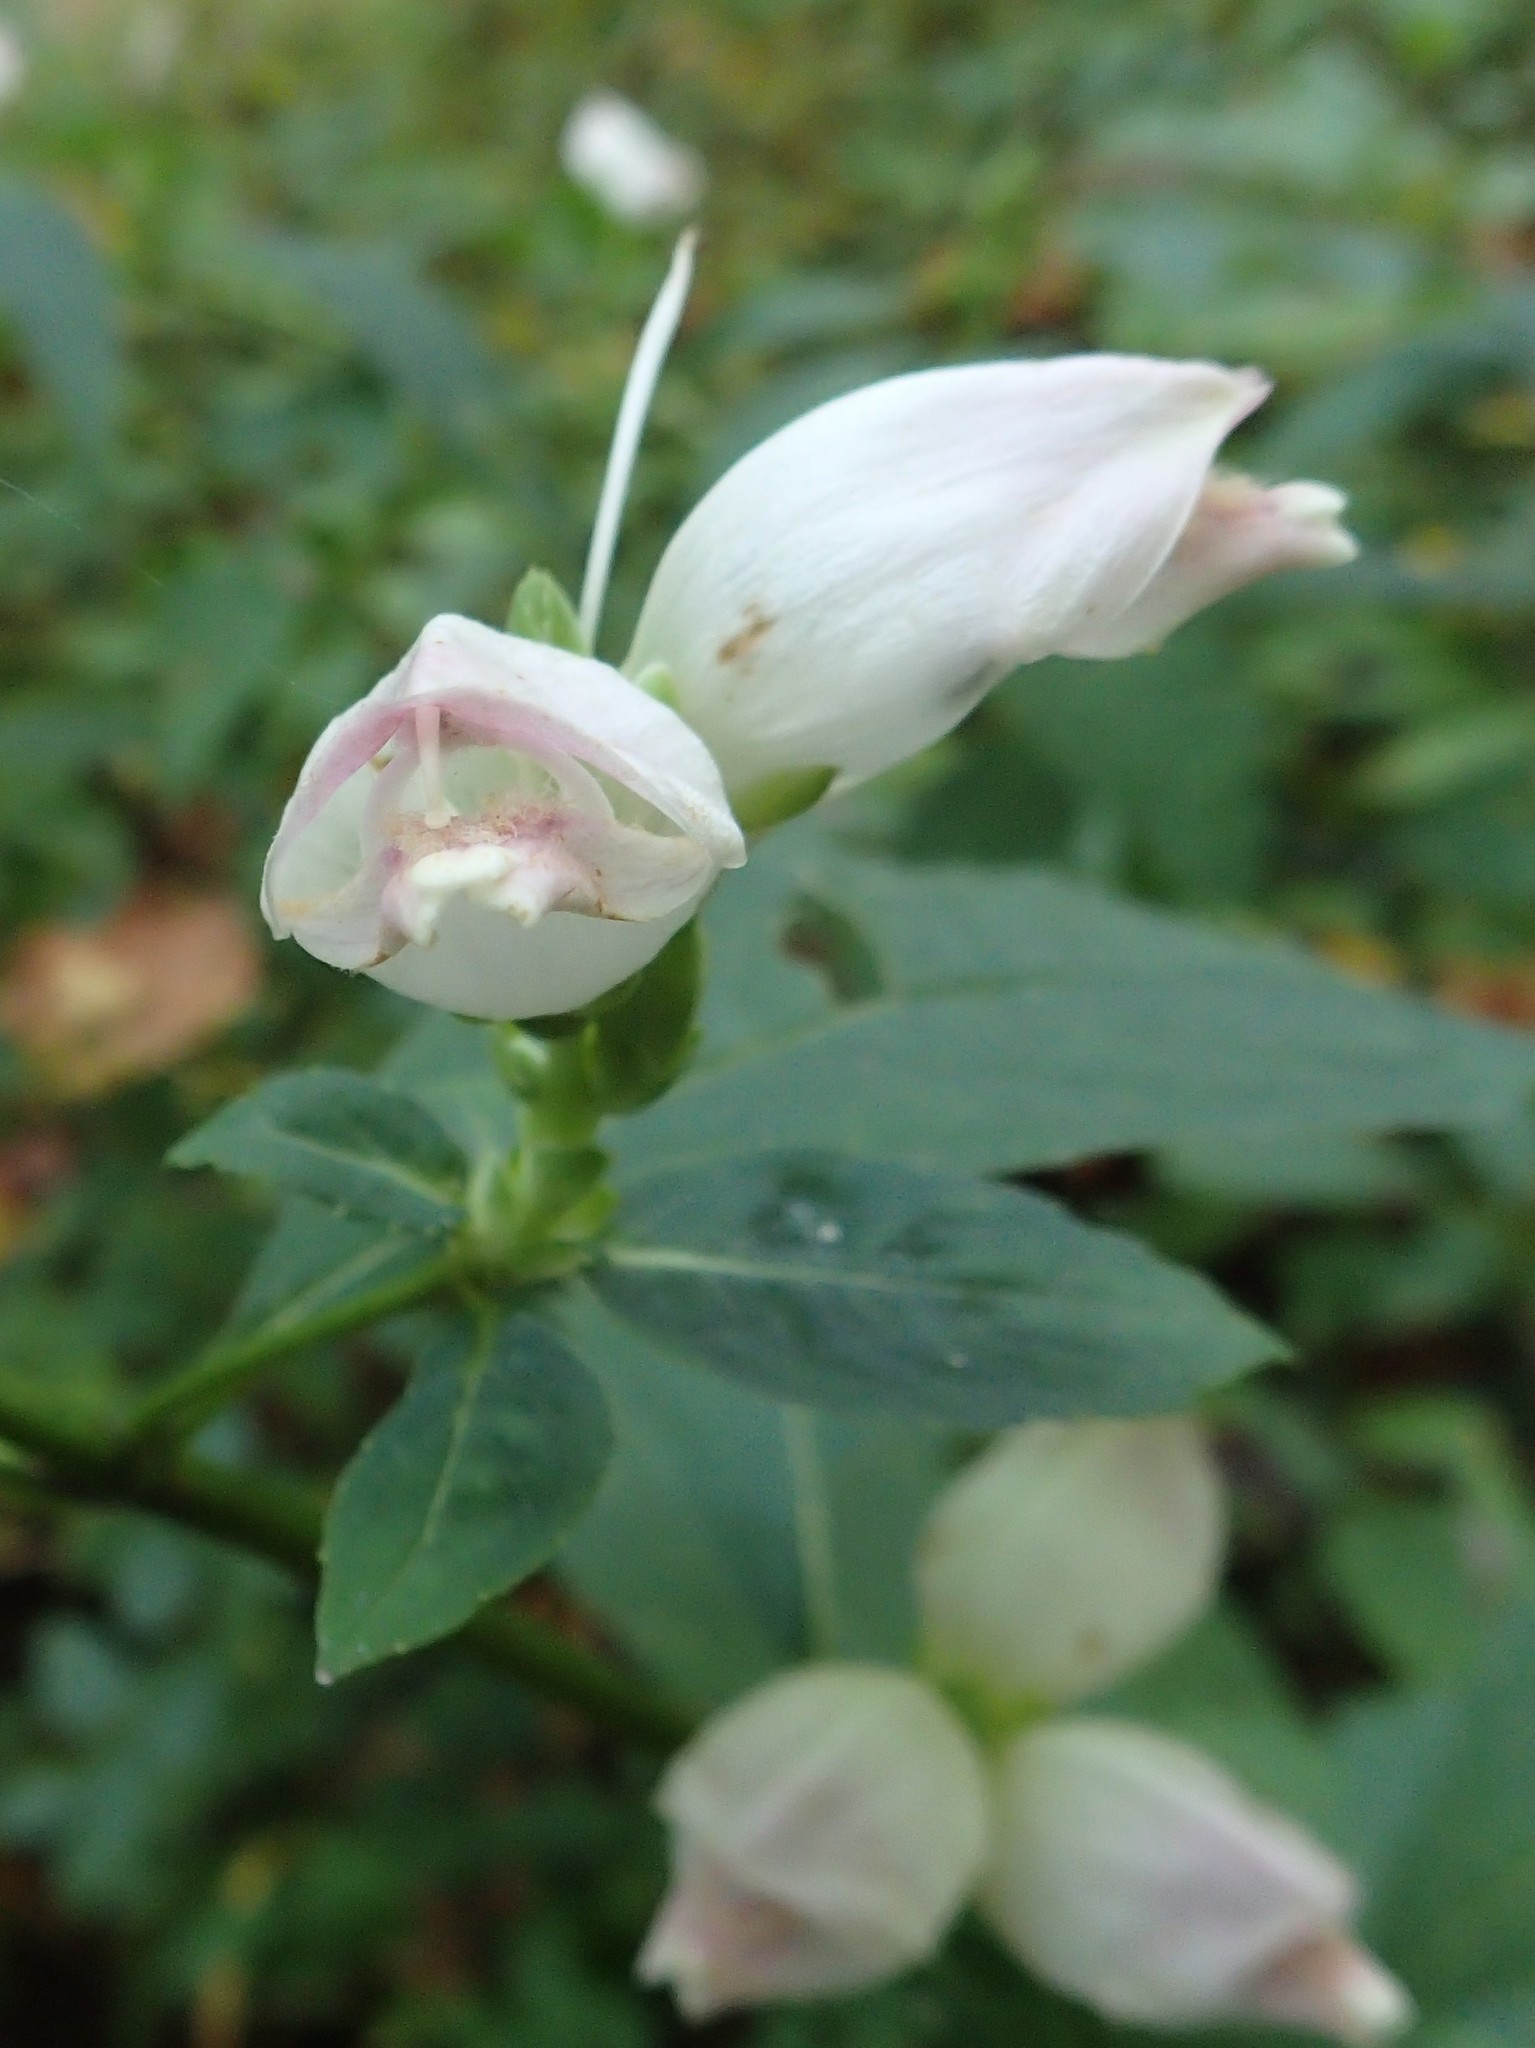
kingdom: Plantae
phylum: Tracheophyta
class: Magnoliopsida
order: Lamiales
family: Plantaginaceae
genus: Chelone
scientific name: Chelone glabra
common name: Snakehead
